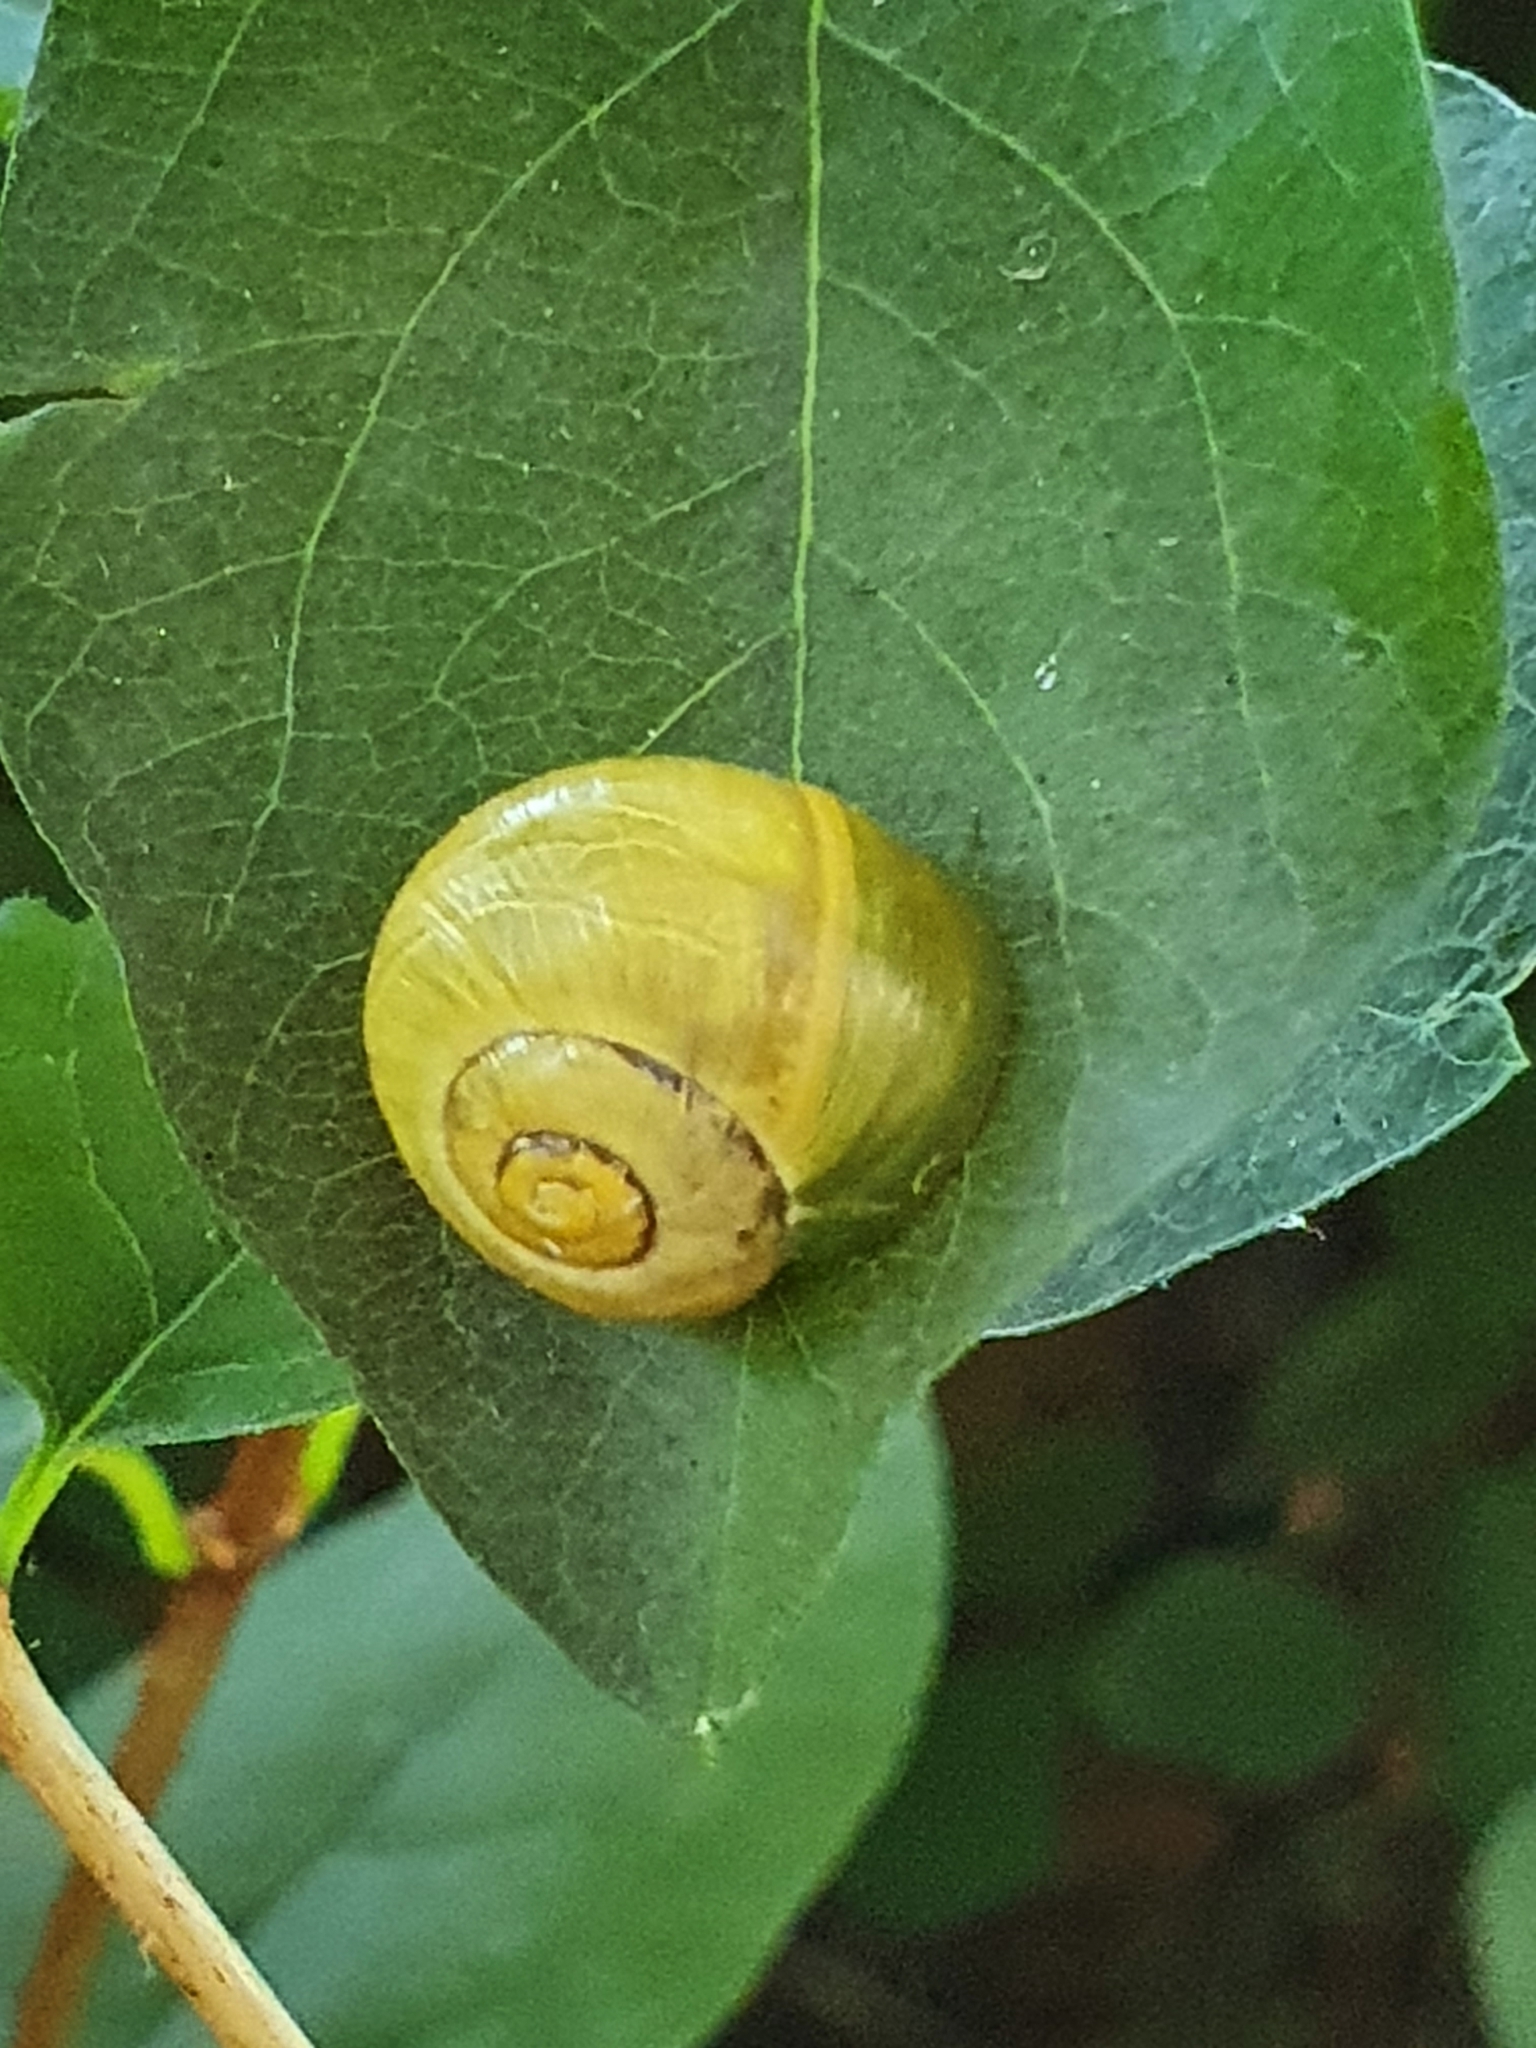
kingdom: Animalia
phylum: Mollusca
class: Gastropoda
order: Stylommatophora
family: Helicidae
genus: Cepaea
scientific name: Cepaea
